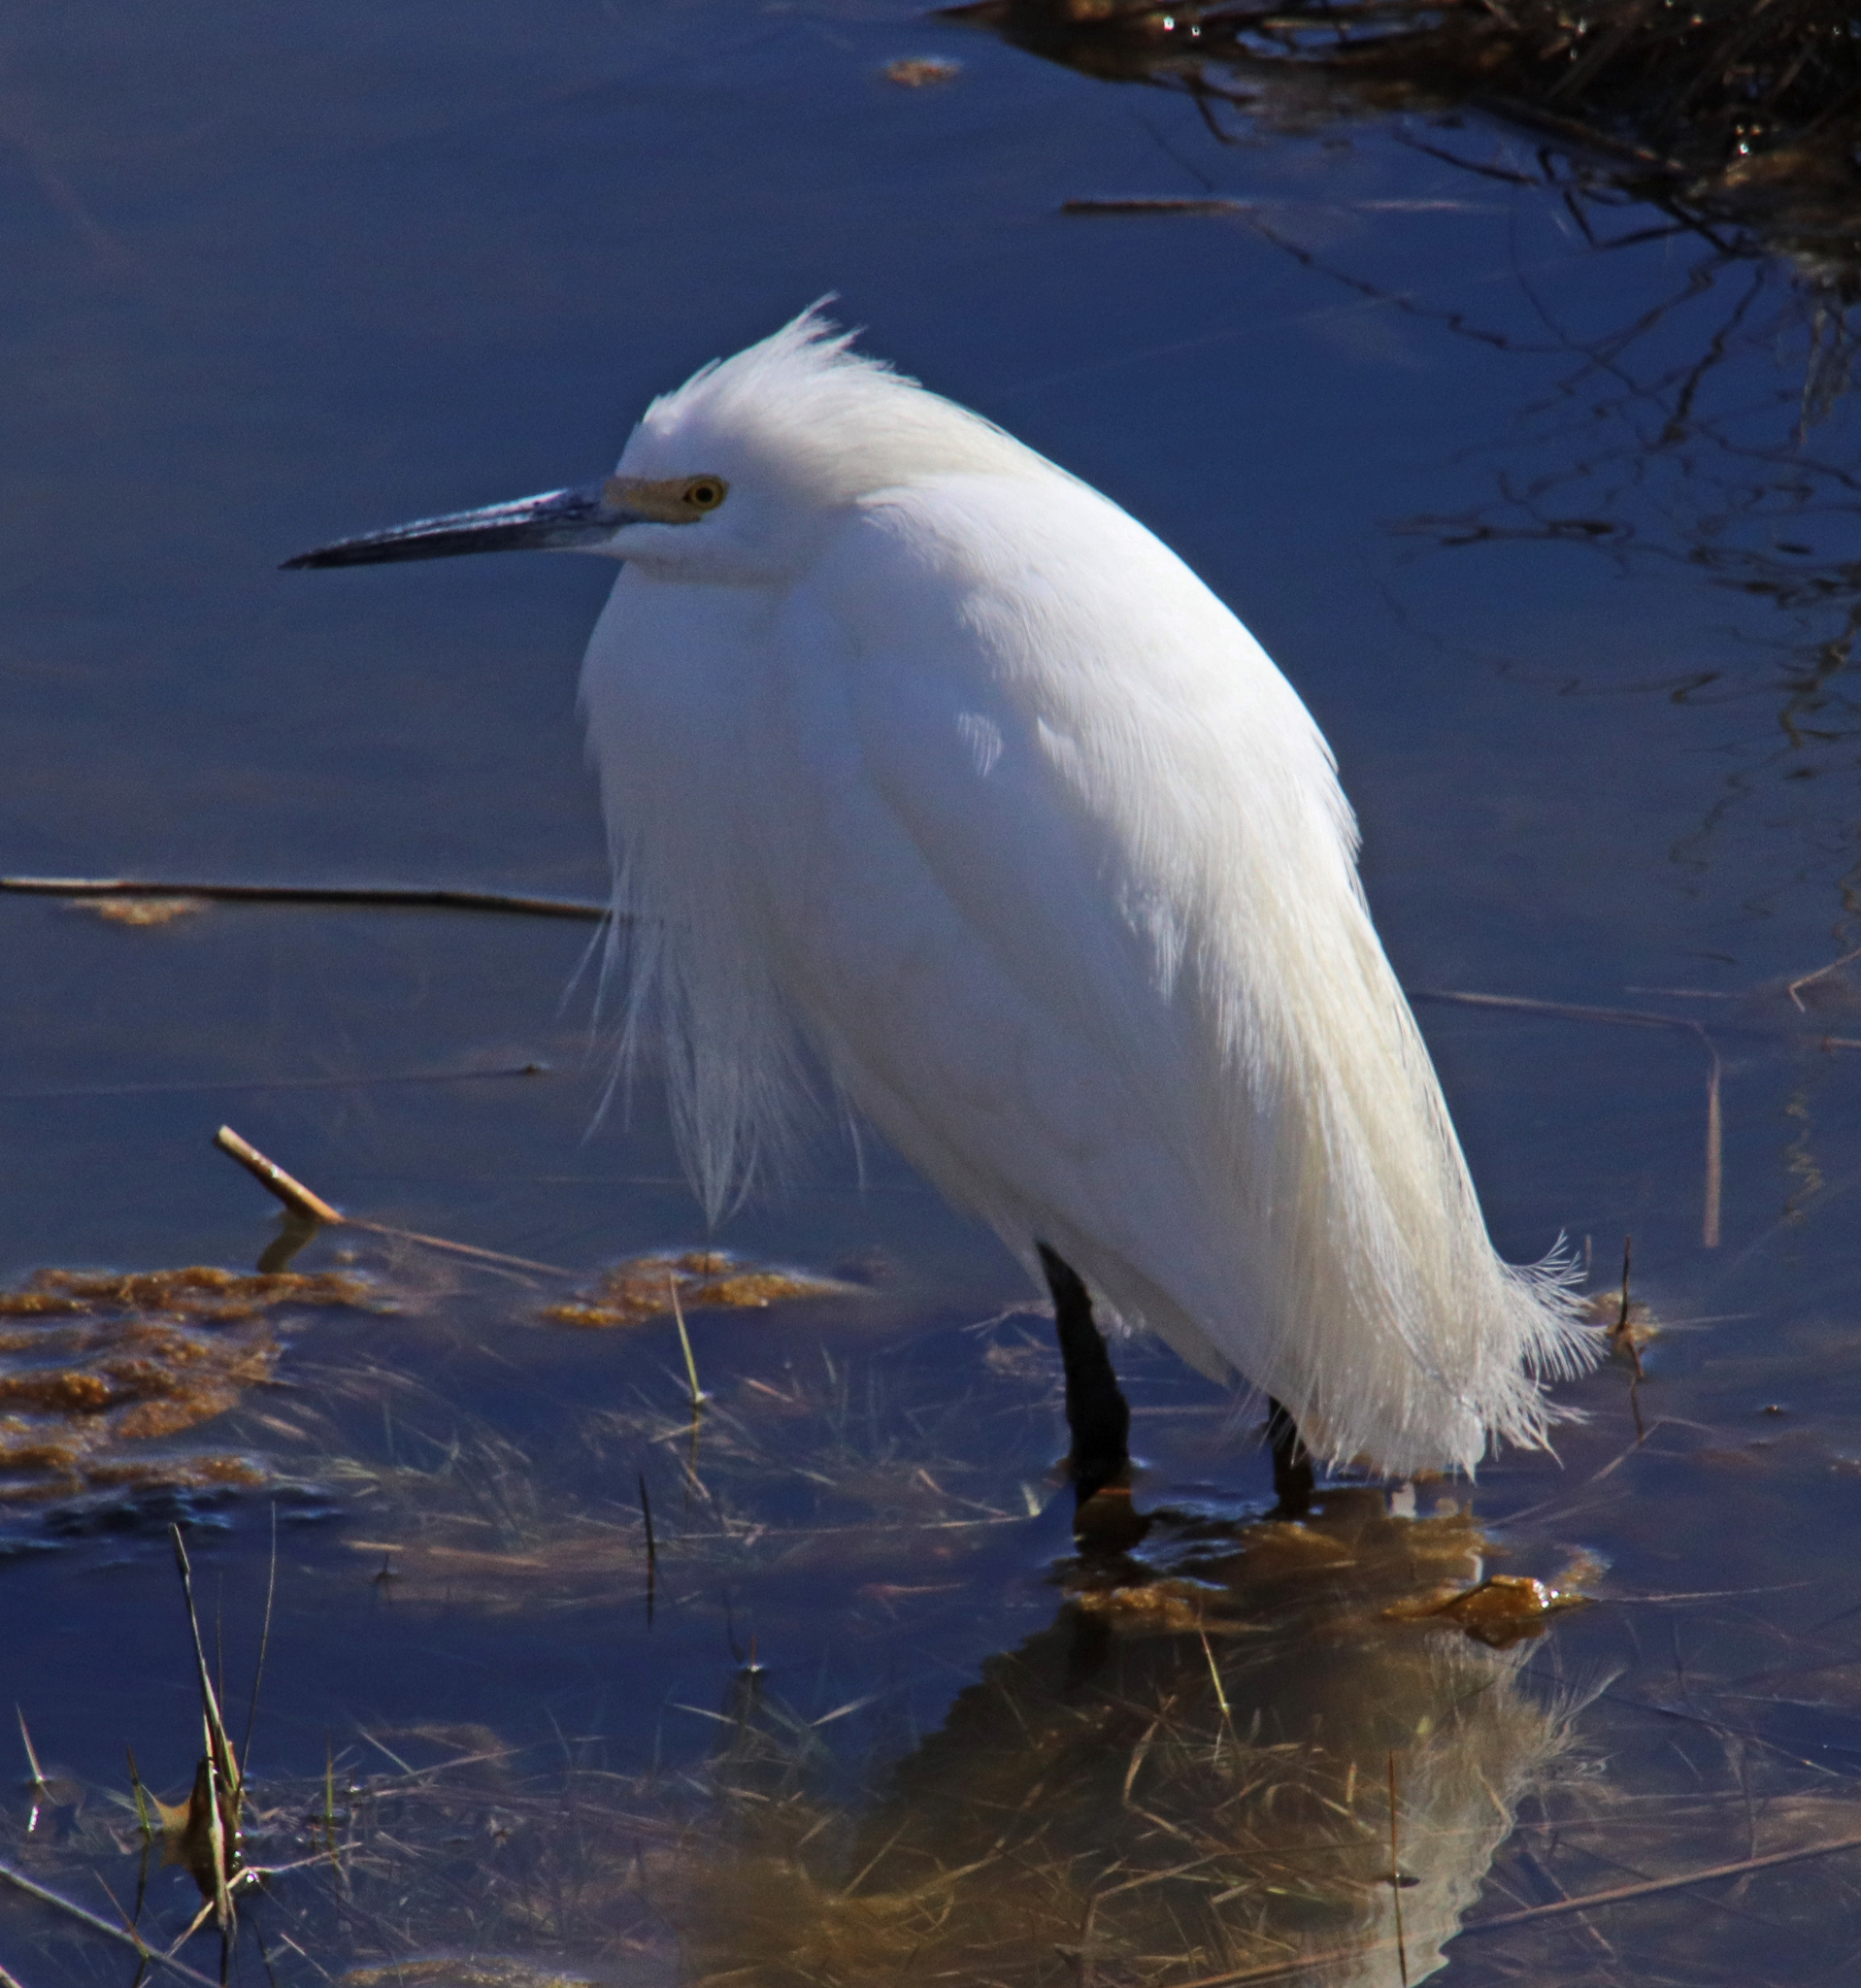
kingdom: Animalia
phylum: Chordata
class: Aves
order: Pelecaniformes
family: Ardeidae
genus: Egretta
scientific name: Egretta thula
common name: Snowy egret
